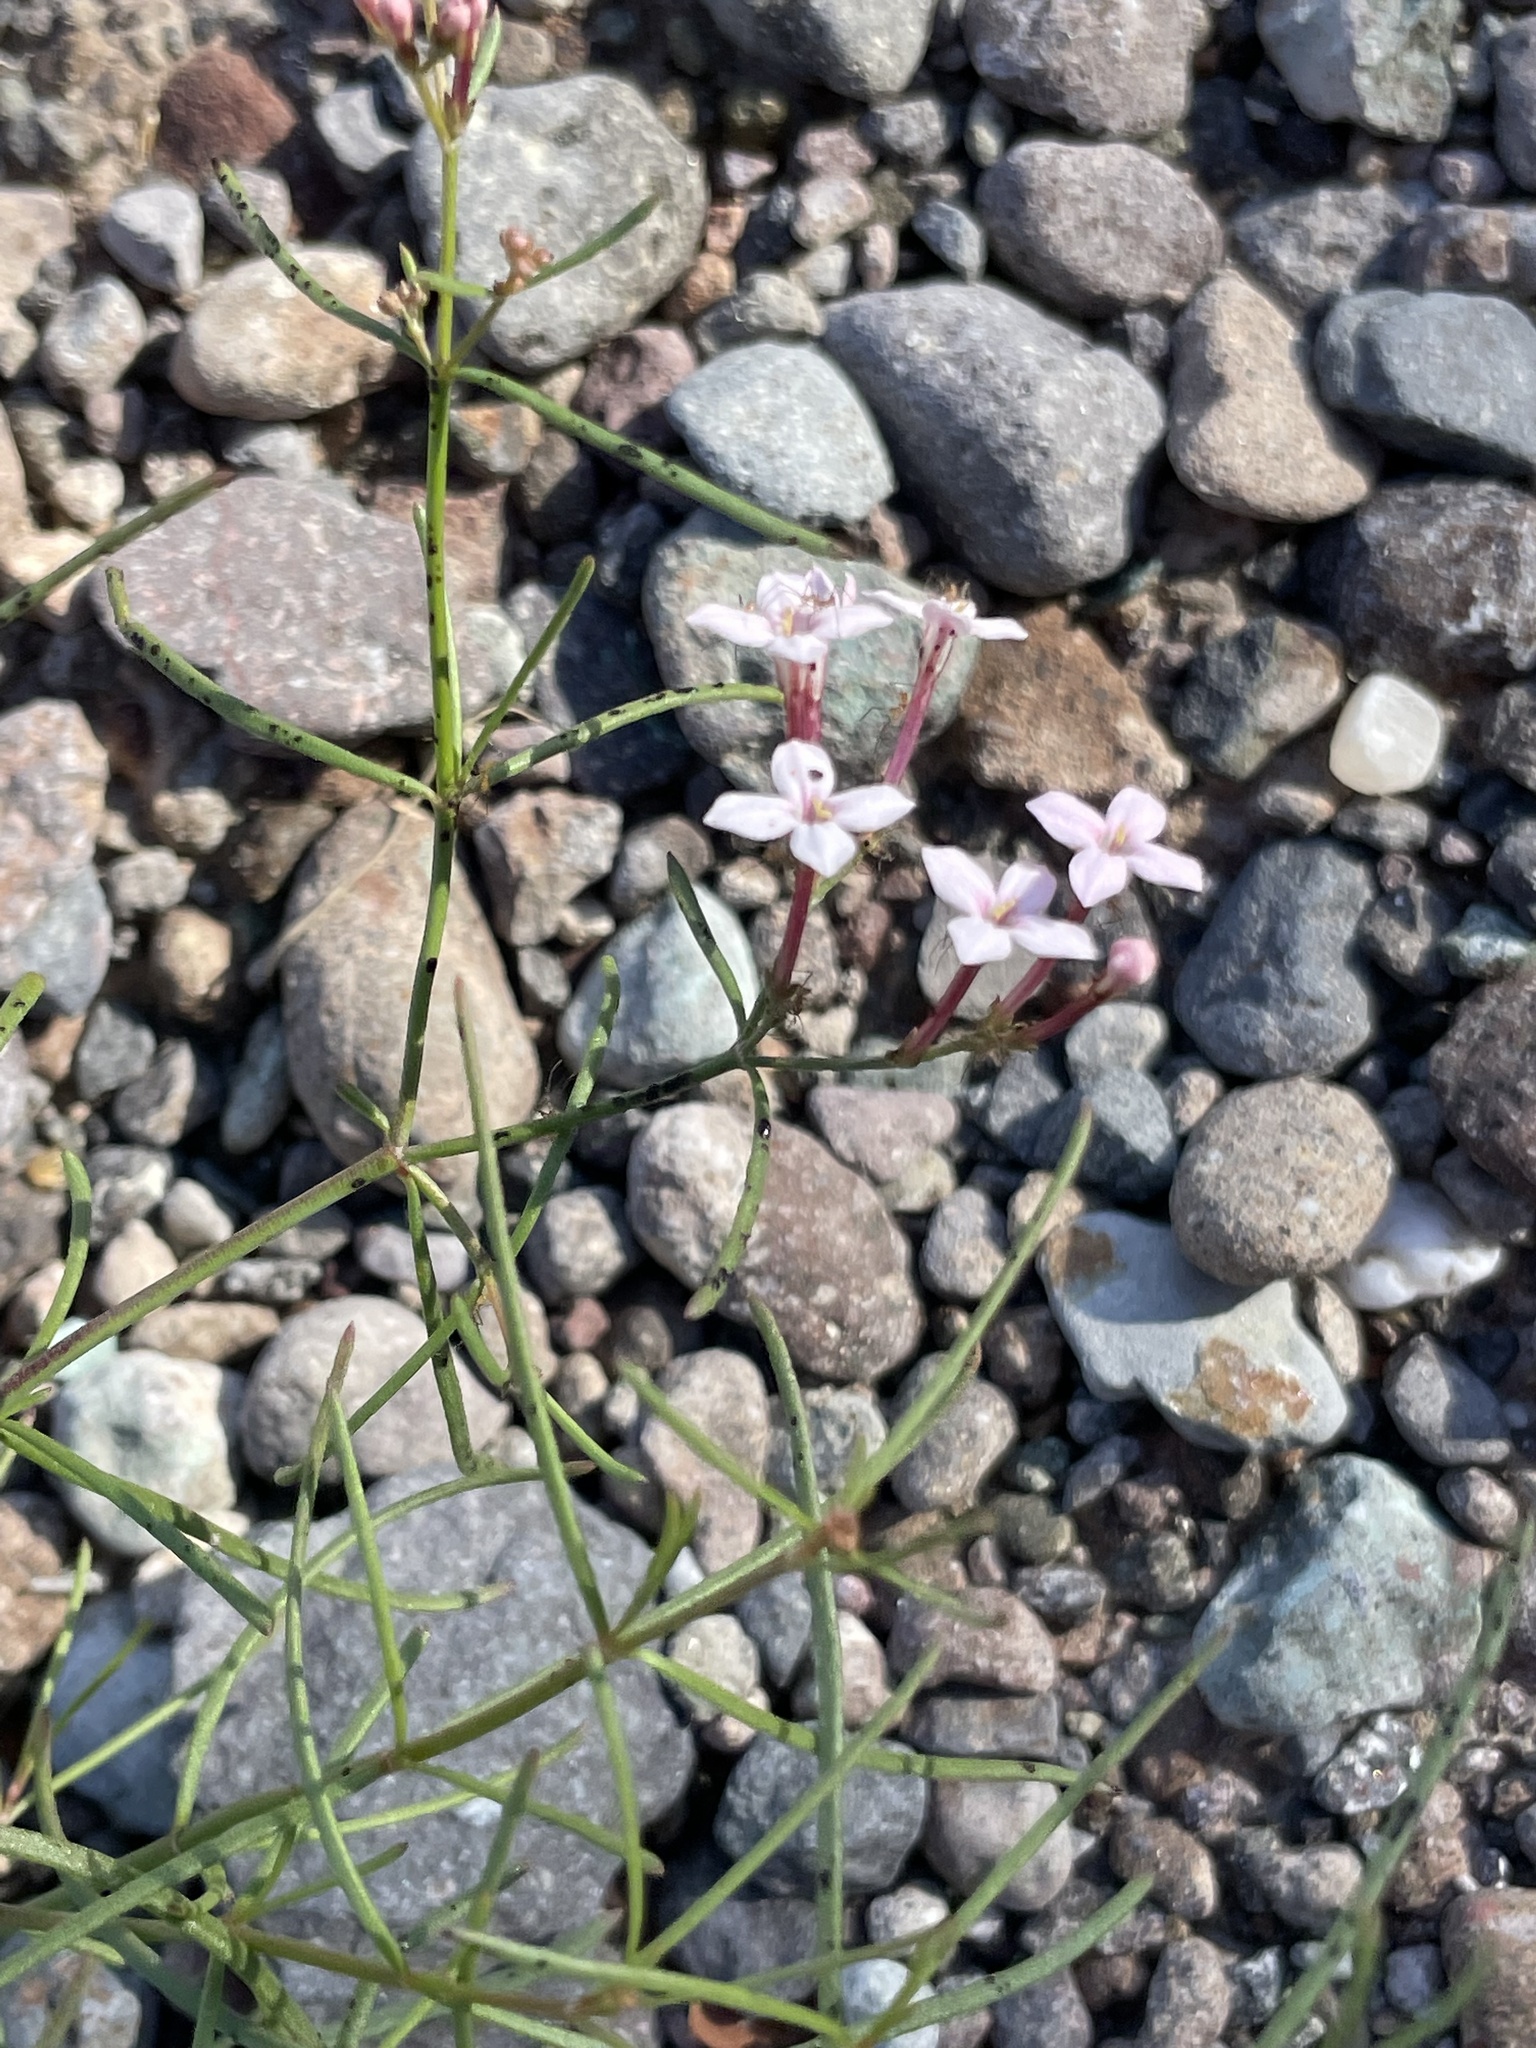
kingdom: Plantae
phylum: Tracheophyta
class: Magnoliopsida
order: Gentianales
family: Rubiaceae
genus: Stenotis
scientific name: Stenotis brevipes
